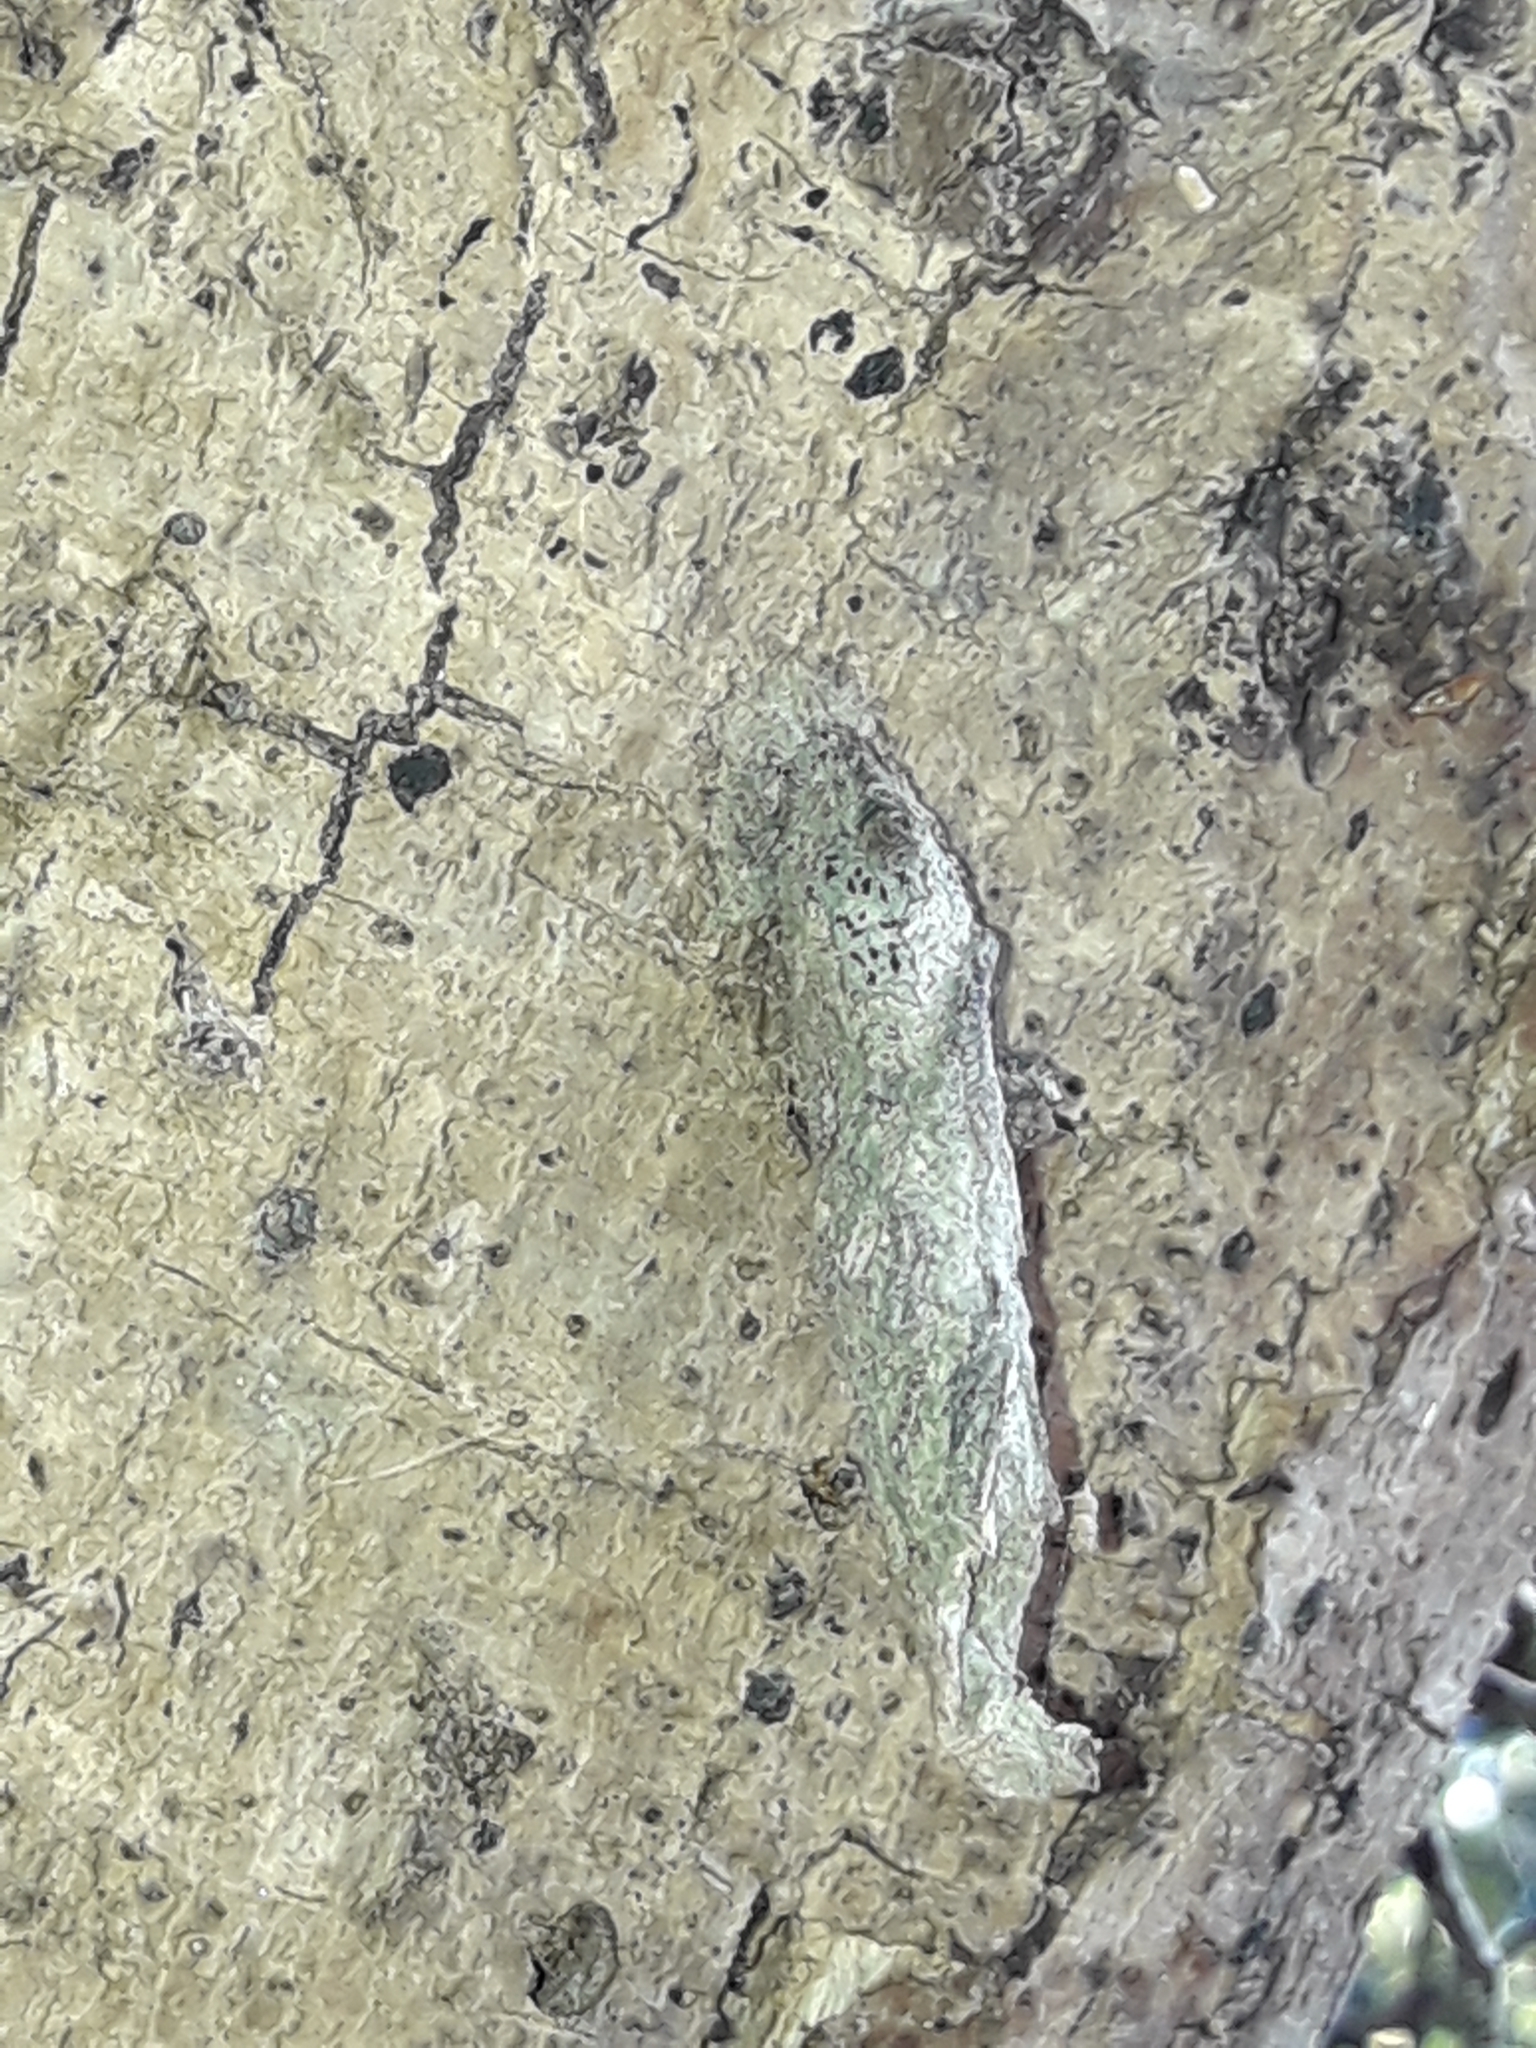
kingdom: Animalia
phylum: Arthropoda
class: Insecta
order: Lepidoptera
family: Psychidae
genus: Liothula
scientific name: Liothula omnivora
